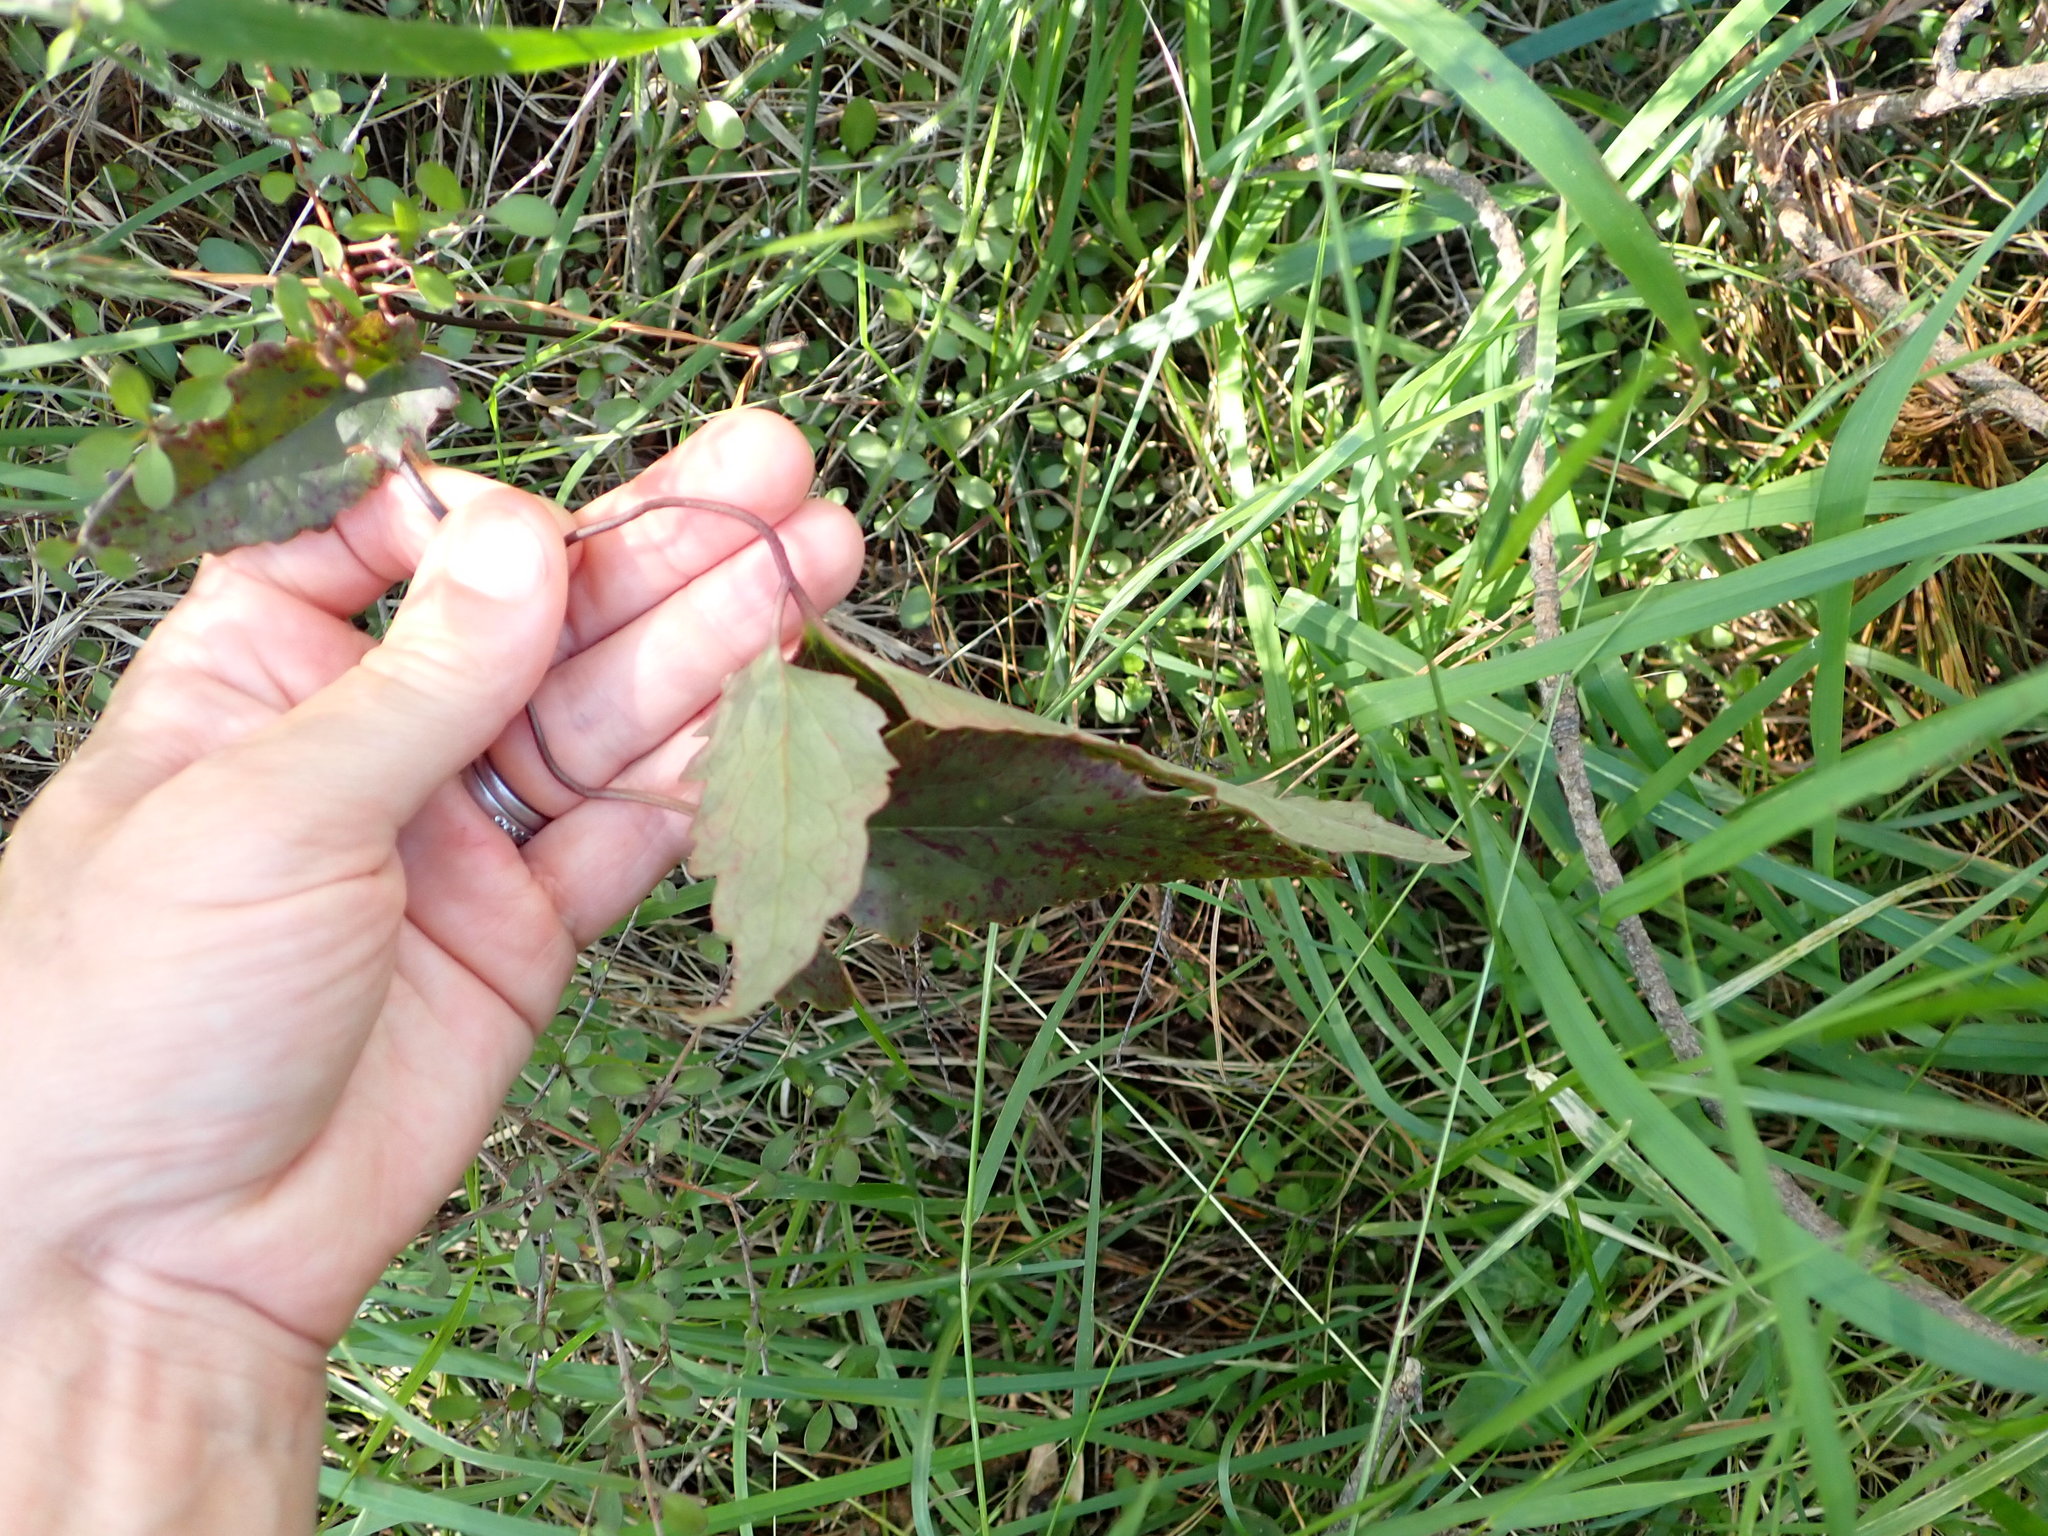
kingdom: Plantae
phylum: Tracheophyta
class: Magnoliopsida
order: Ranunculales
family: Ranunculaceae
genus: Clematis
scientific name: Clematis paniculata
